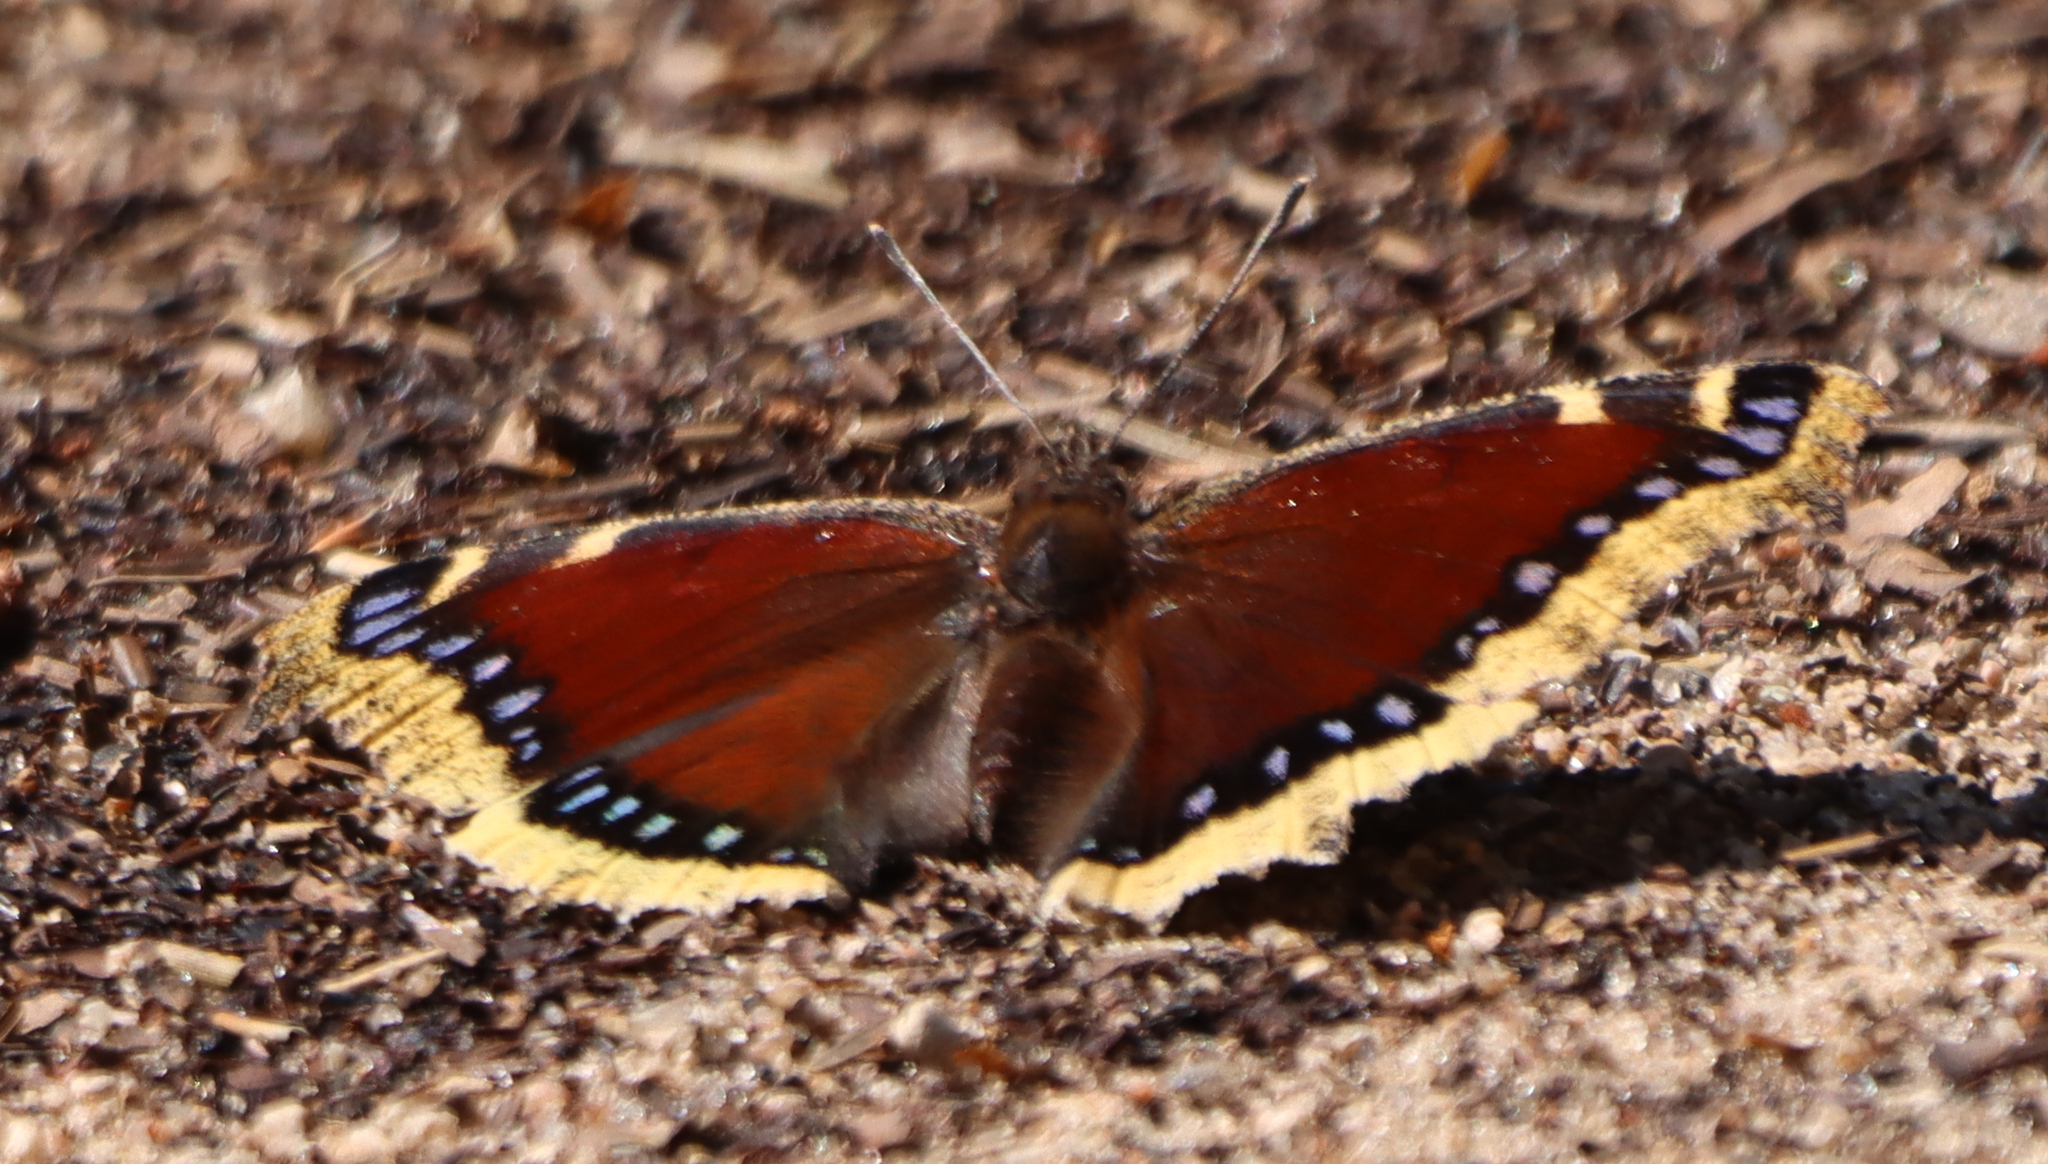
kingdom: Animalia
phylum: Arthropoda
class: Insecta
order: Lepidoptera
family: Nymphalidae
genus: Nymphalis
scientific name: Nymphalis antiopa
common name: Camberwell beauty
